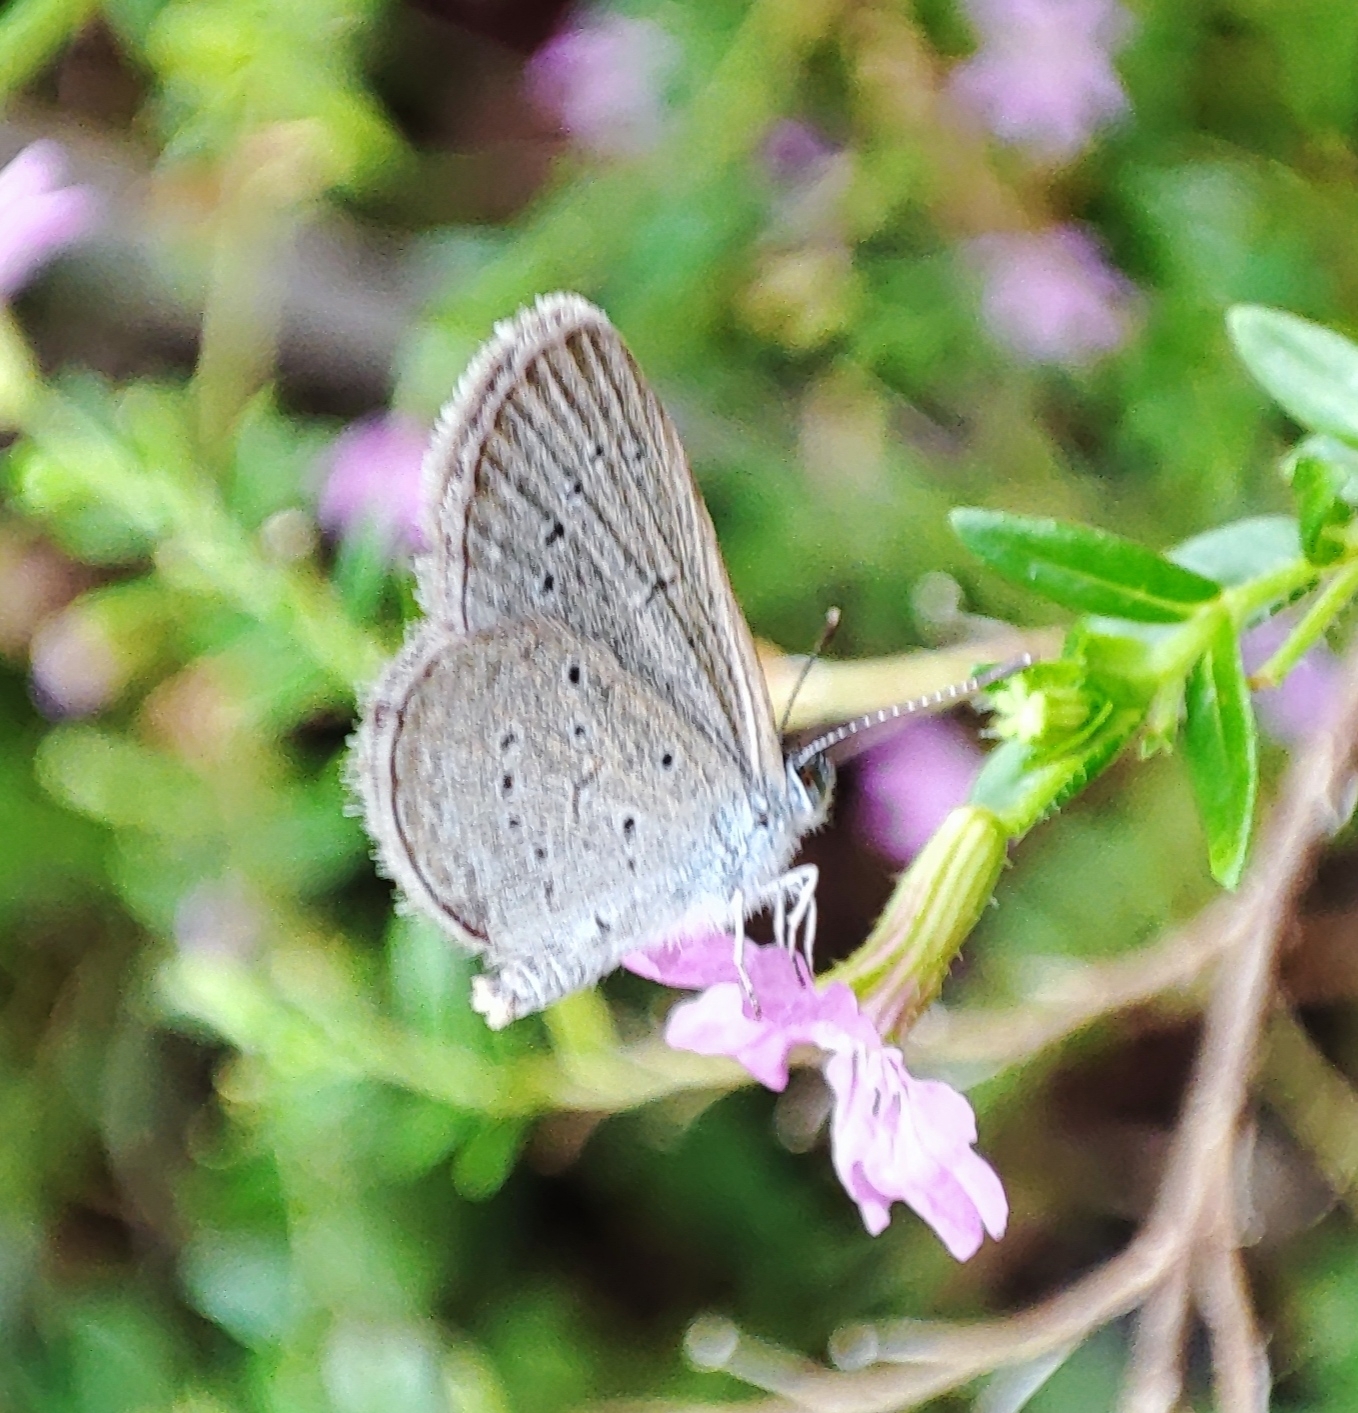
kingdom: Animalia
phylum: Arthropoda
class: Insecta
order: Lepidoptera
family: Lycaenidae
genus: Zizina
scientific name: Zizina otis
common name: Lesser grass blue
